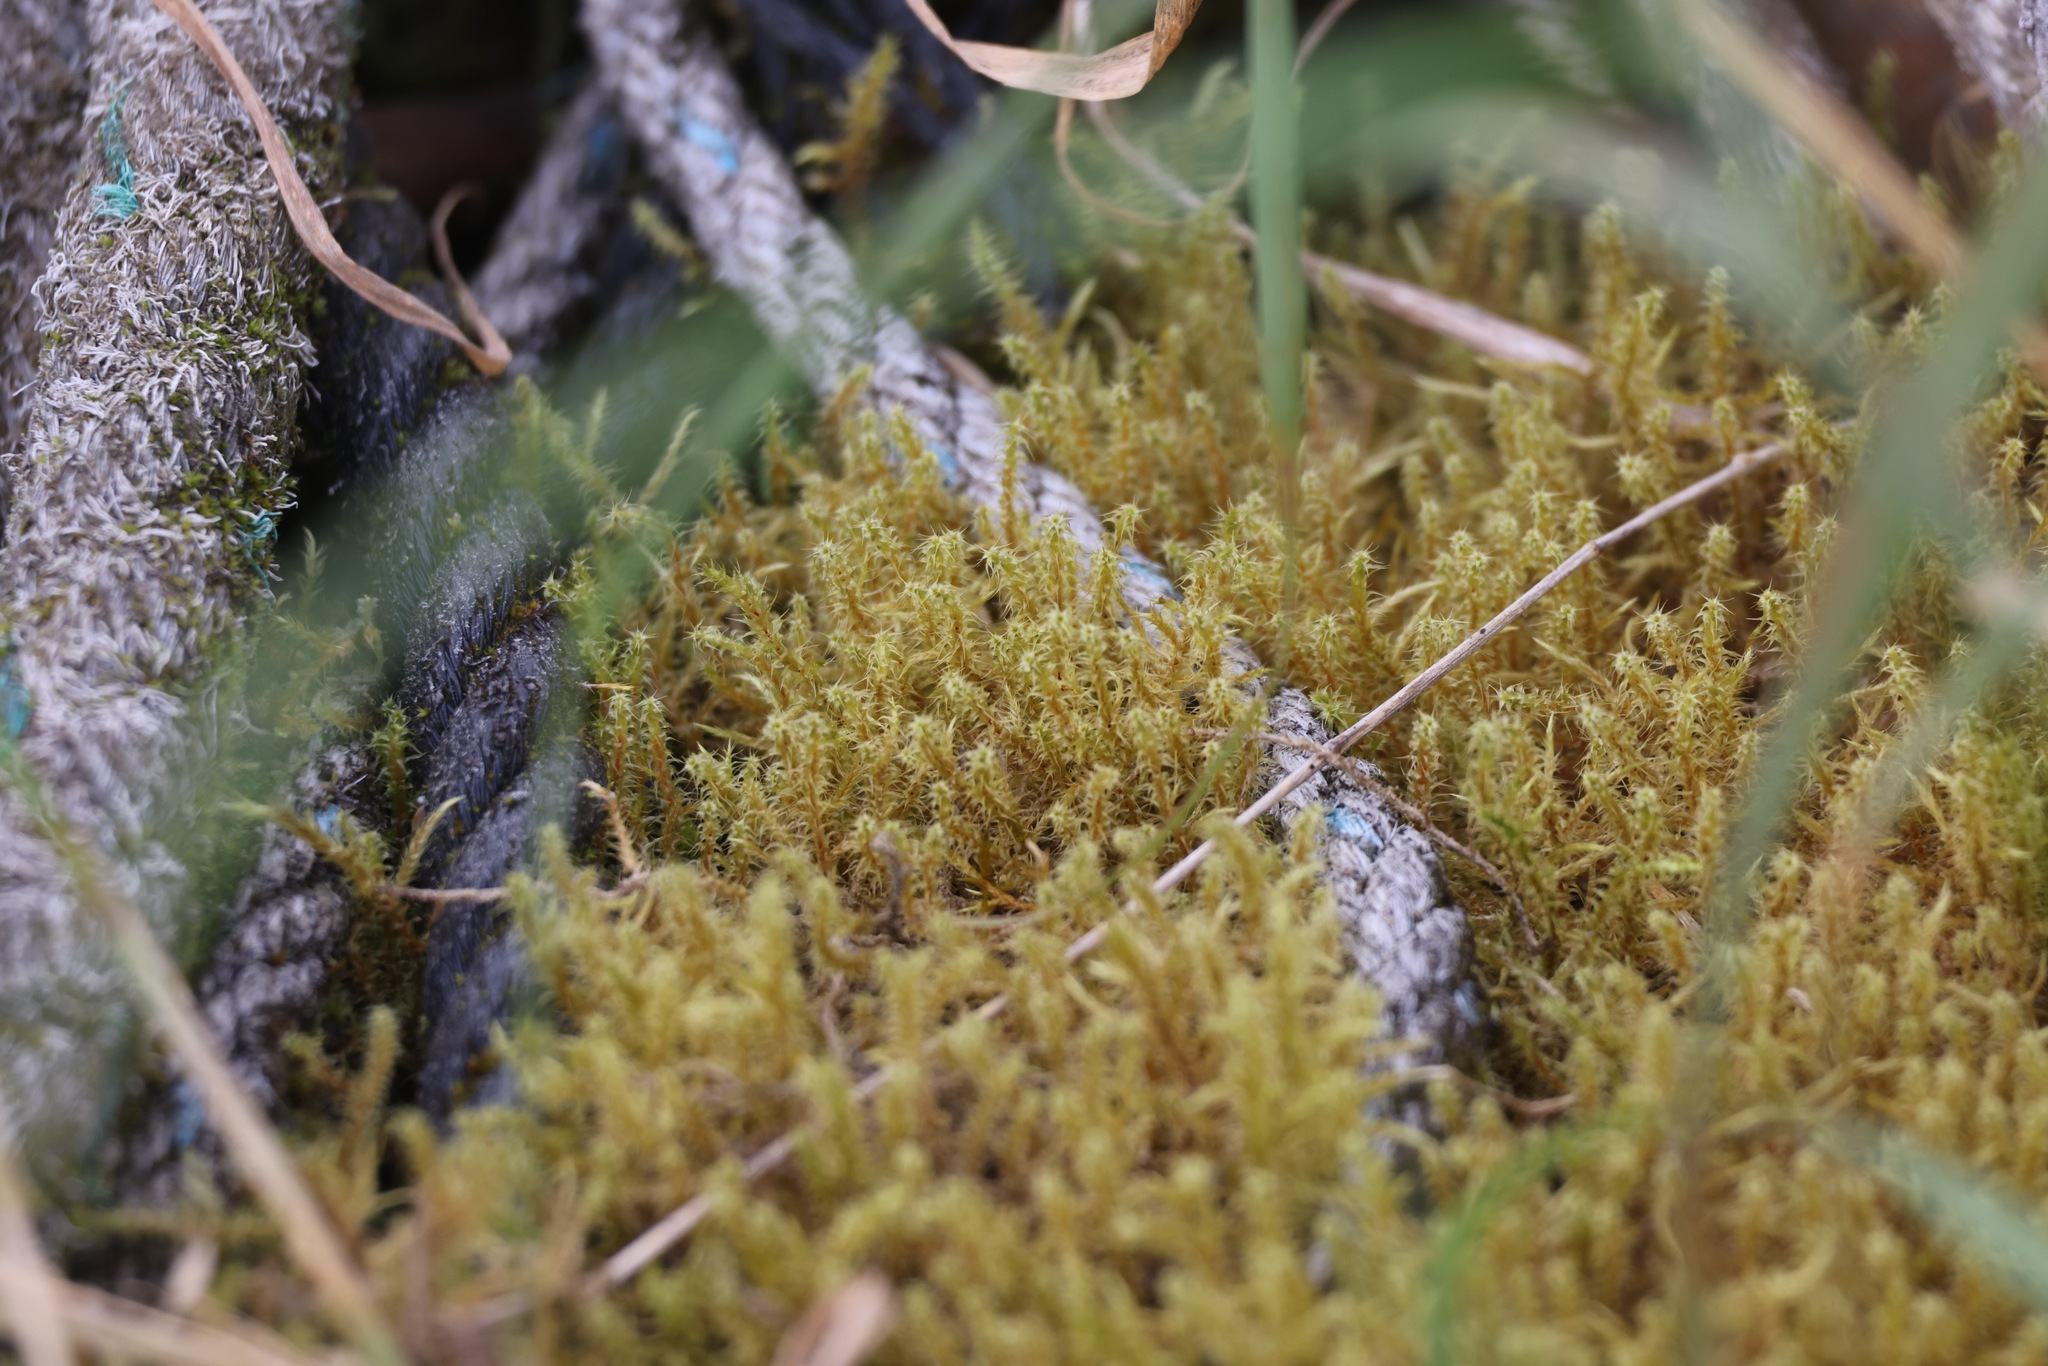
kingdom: Plantae
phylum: Bryophyta
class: Bryopsida
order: Hypnales
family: Hylocomiaceae
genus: Rhytidiadelphus
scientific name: Rhytidiadelphus squarrosus
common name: Springy turf-moss
